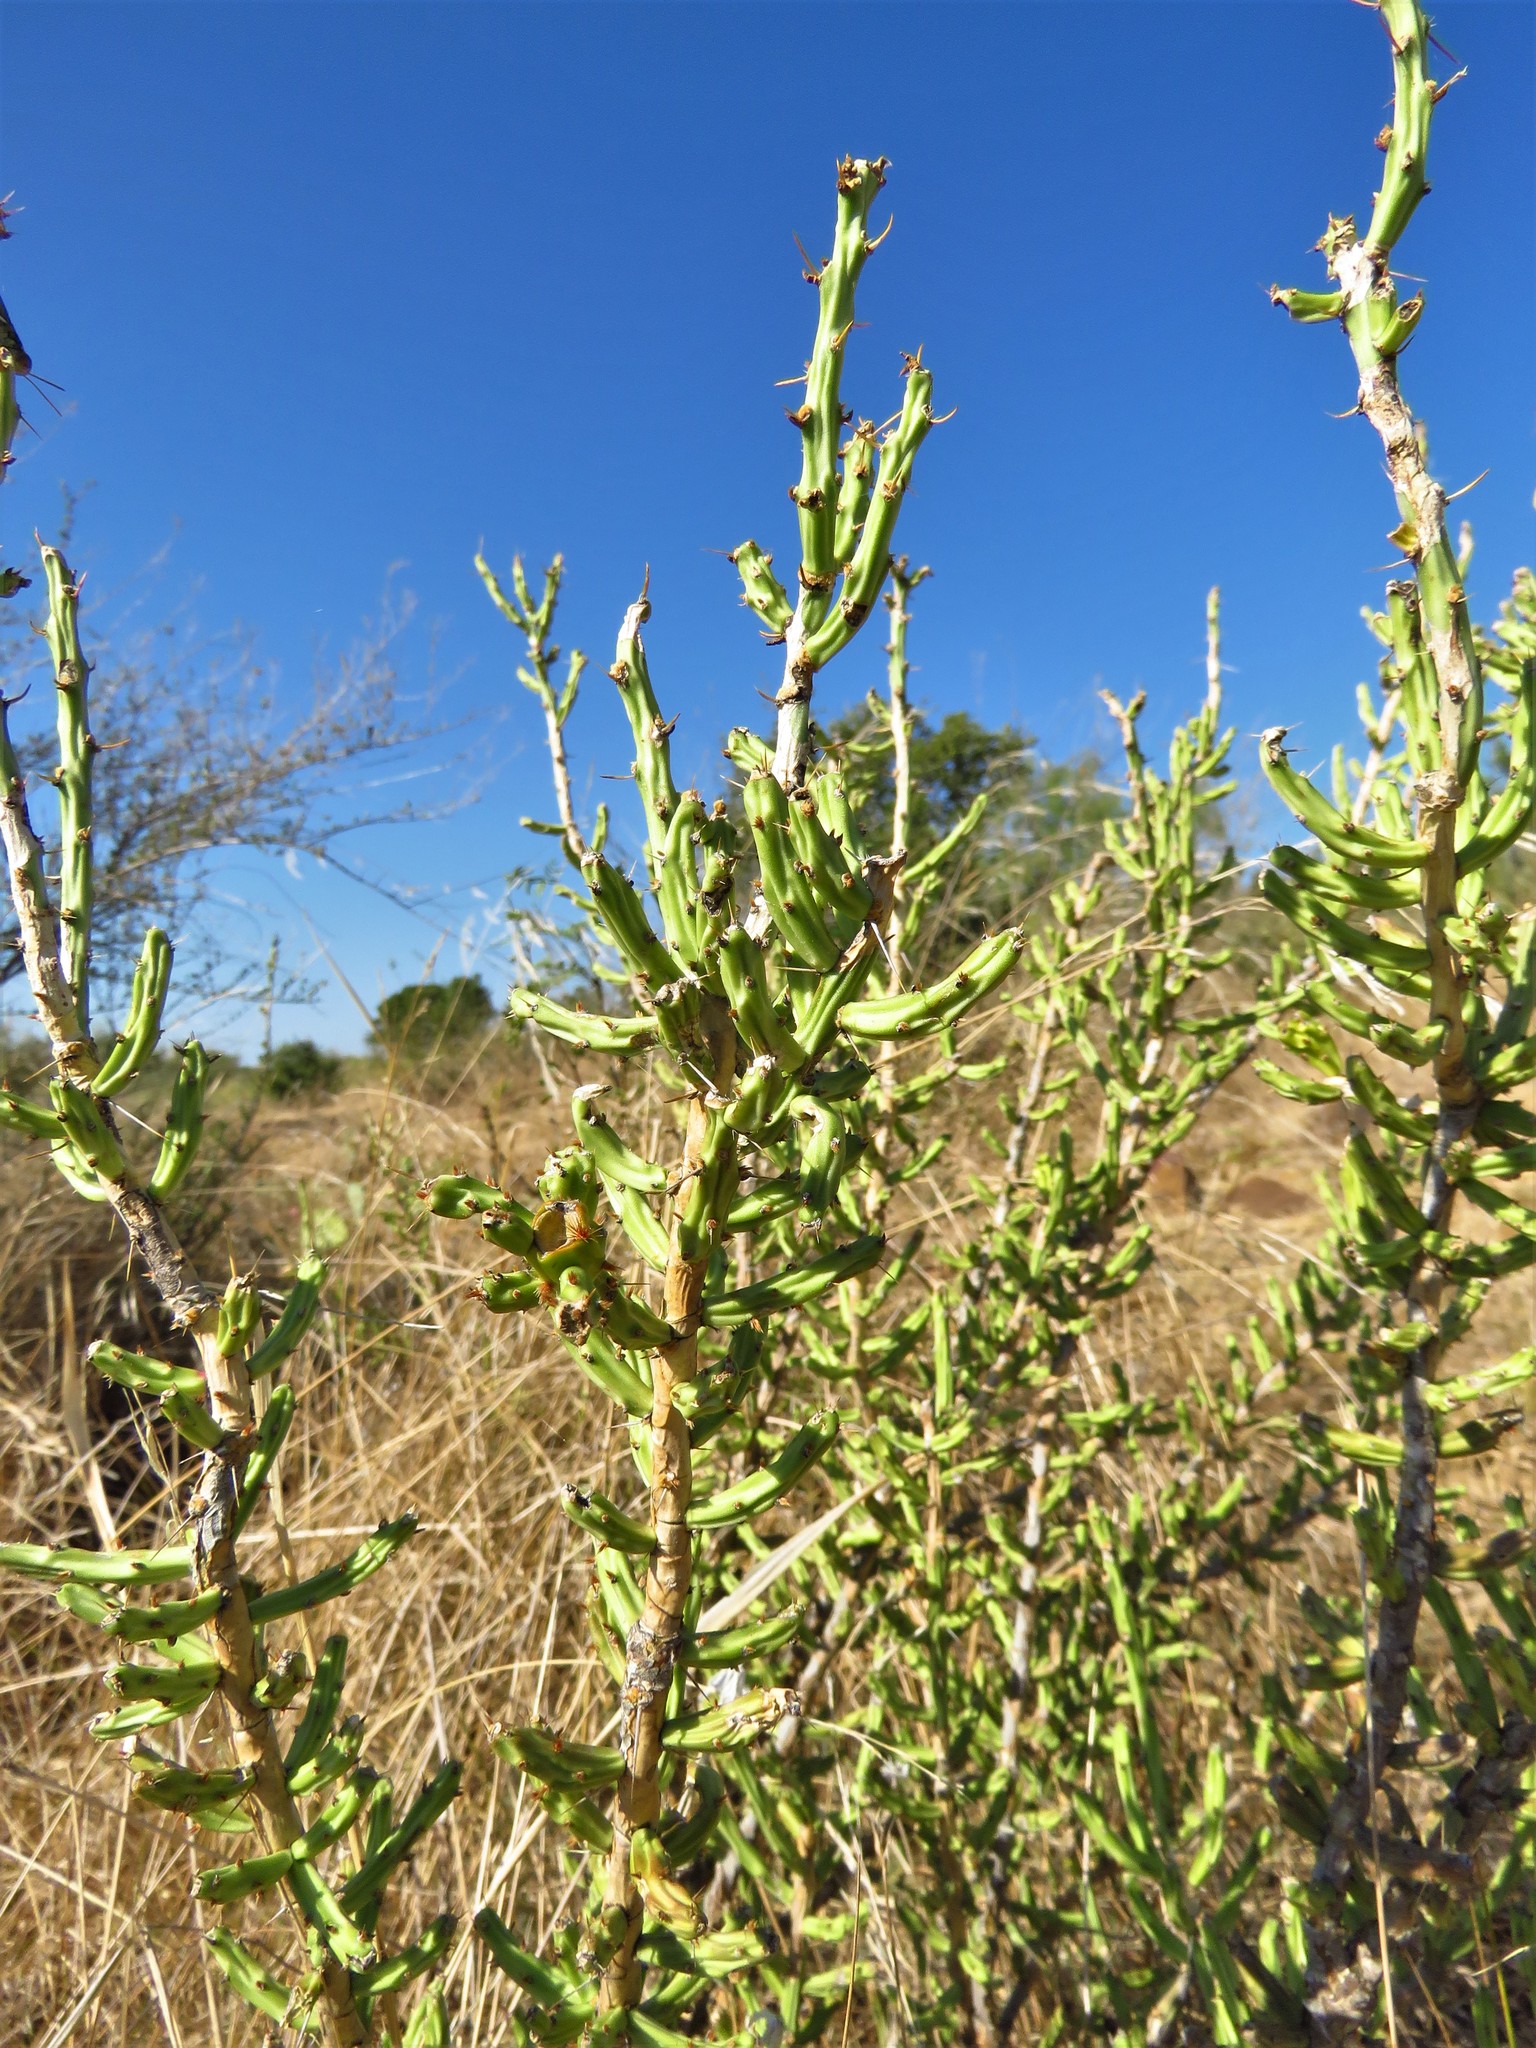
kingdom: Plantae
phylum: Tracheophyta
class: Magnoliopsida
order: Caryophyllales
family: Cactaceae
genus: Cylindropuntia
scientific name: Cylindropuntia leptocaulis
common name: Christmas cactus
